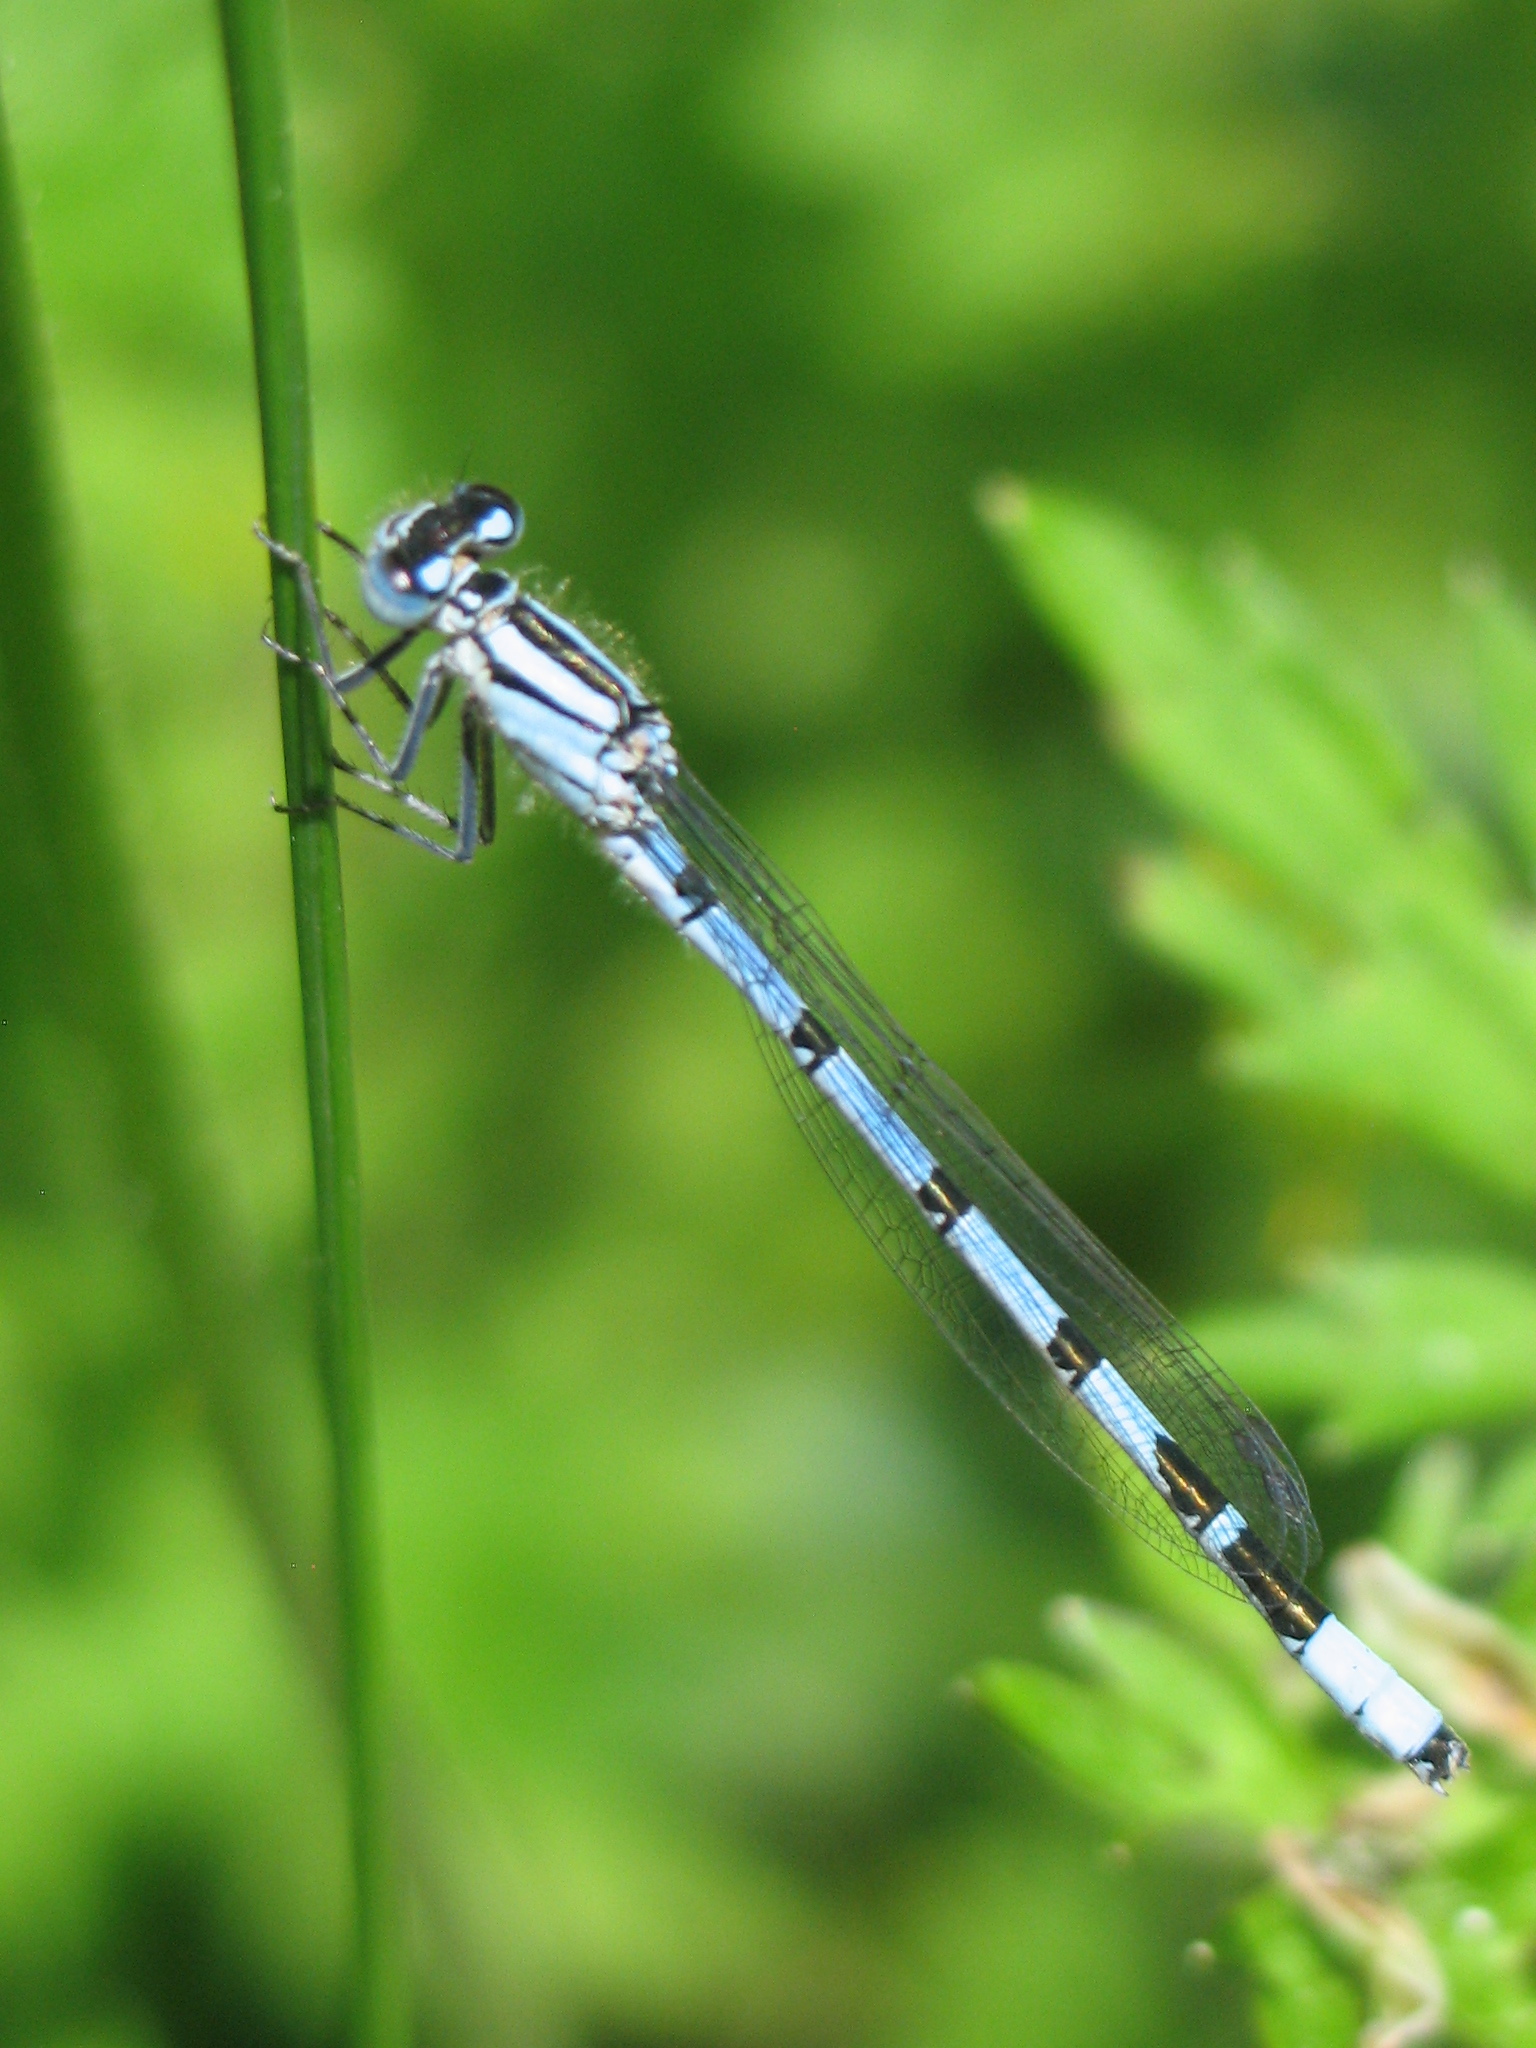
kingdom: Animalia
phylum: Arthropoda
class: Insecta
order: Odonata
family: Coenagrionidae
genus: Enallagma
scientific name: Enallagma cyathigerum
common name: Common blue damselfly
